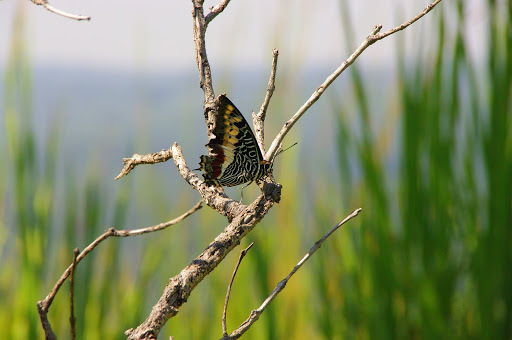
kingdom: Animalia
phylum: Arthropoda
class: Insecta
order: Lepidoptera
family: Nymphalidae
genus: Charaxes
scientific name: Charaxes castor
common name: Giant charaxes
